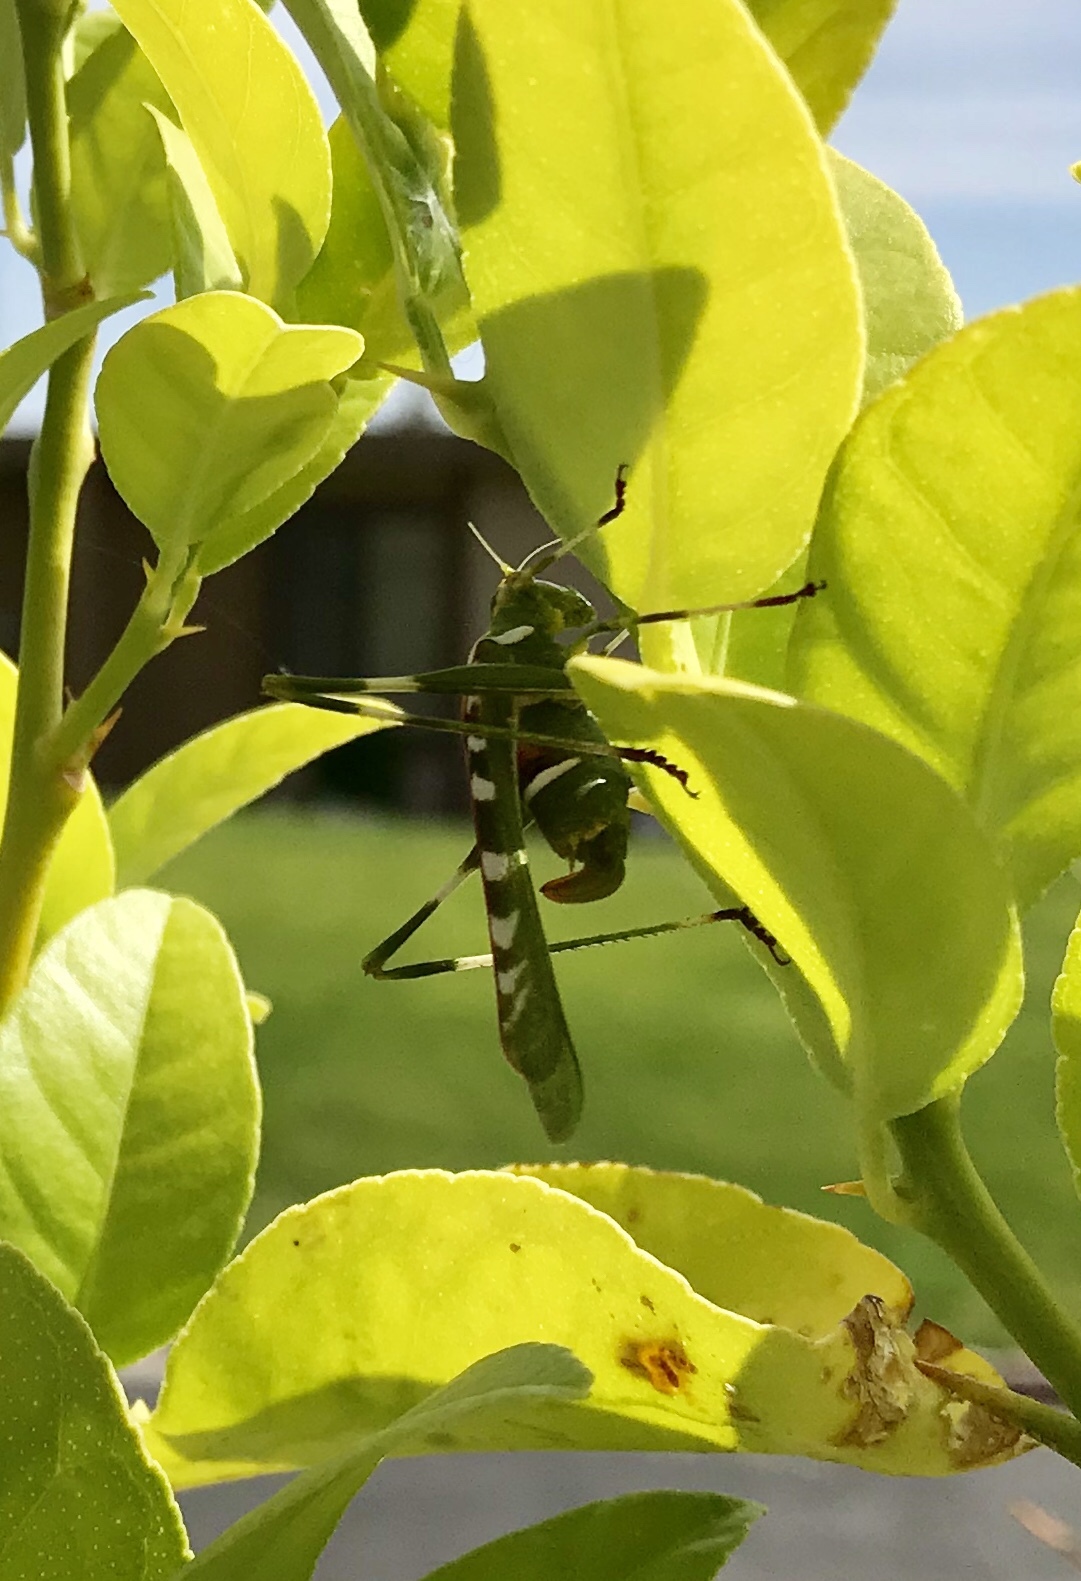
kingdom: Animalia
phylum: Arthropoda
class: Insecta
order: Orthoptera
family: Tettigoniidae
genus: Insara
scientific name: Insara covilleae
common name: Creosote bush katydid
